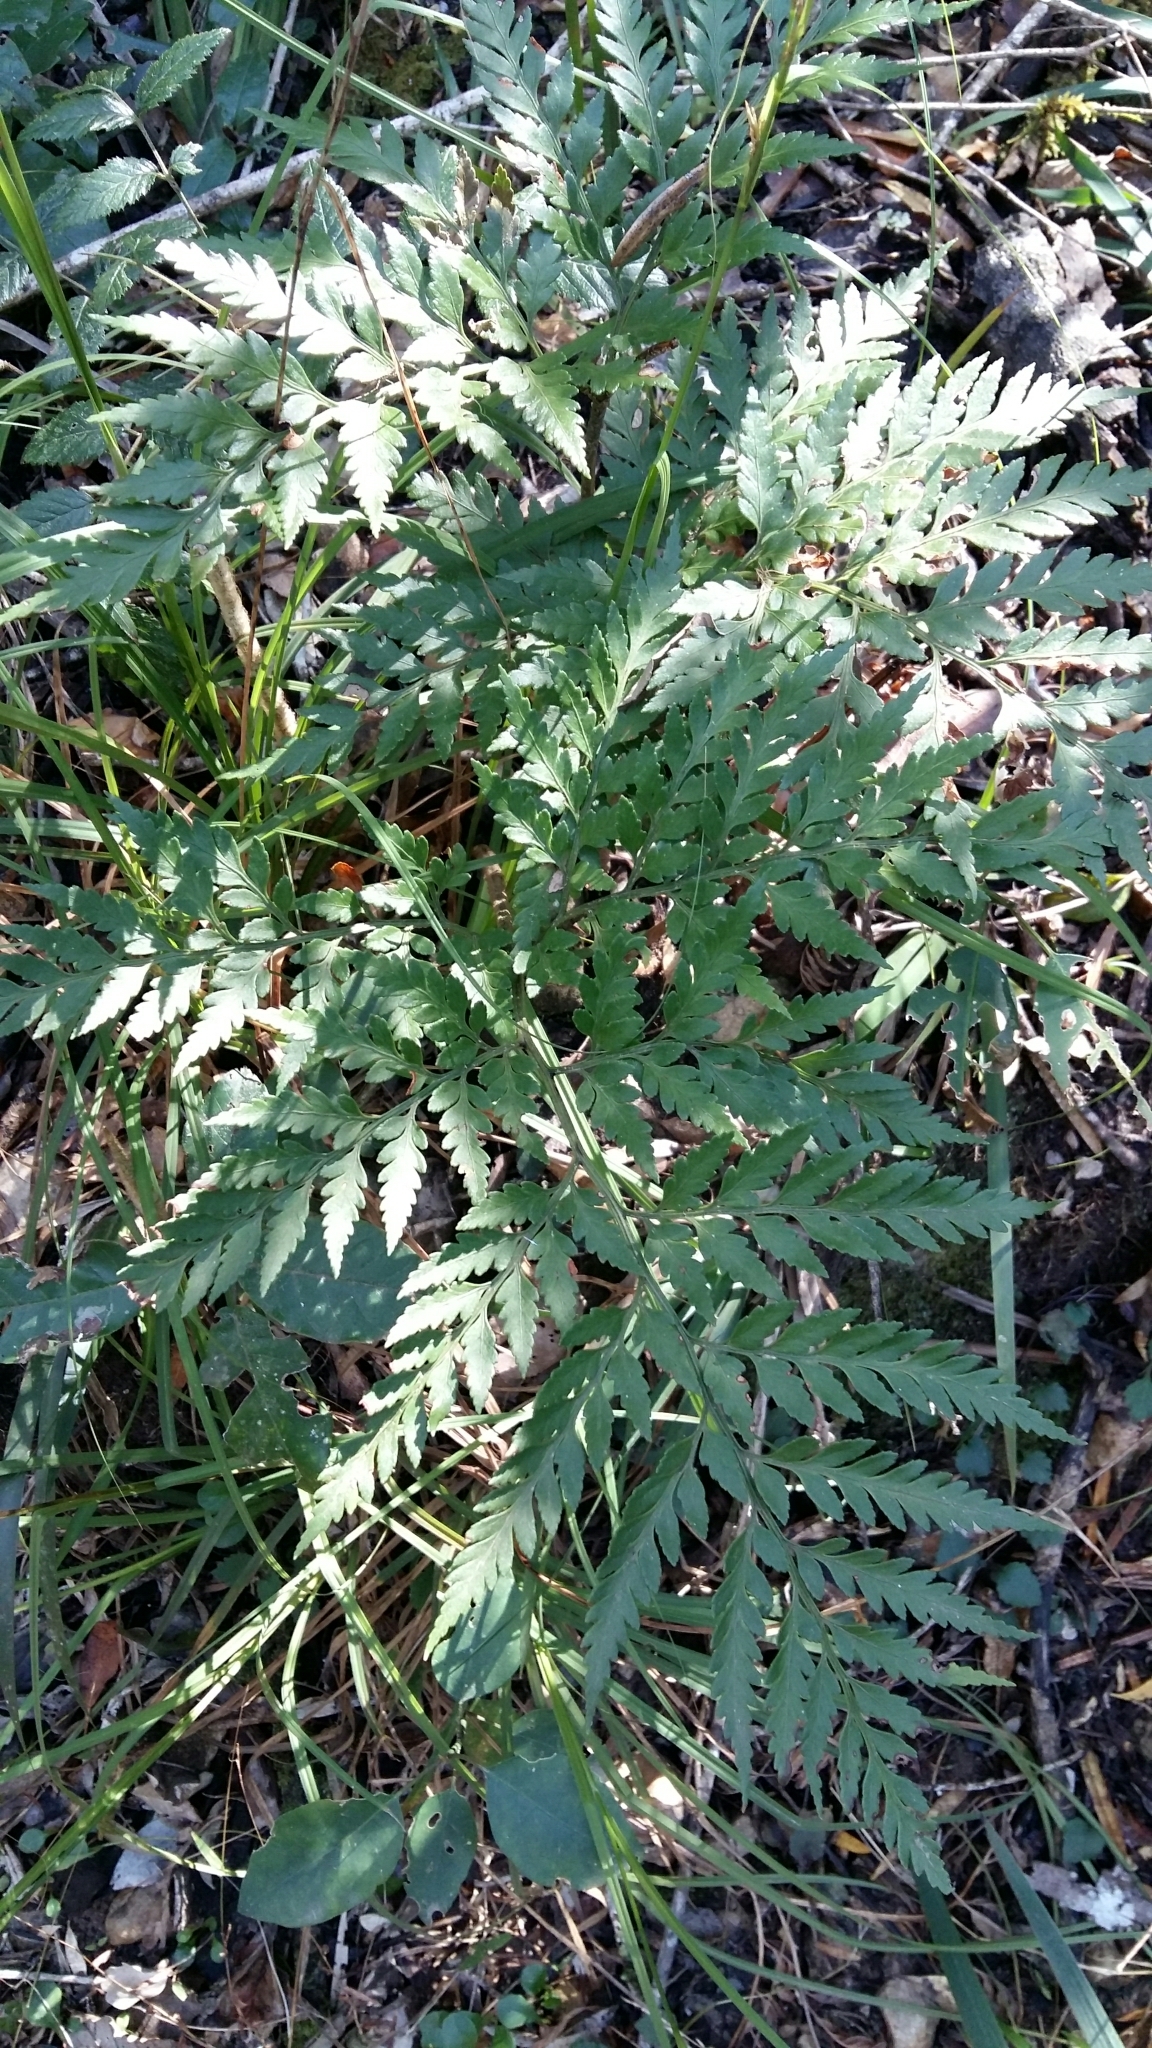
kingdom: Plantae
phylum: Tracheophyta
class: Polypodiopsida
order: Polypodiales
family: Dryopteridaceae
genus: Rumohra
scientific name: Rumohra adiantiformis
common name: Leather fern
